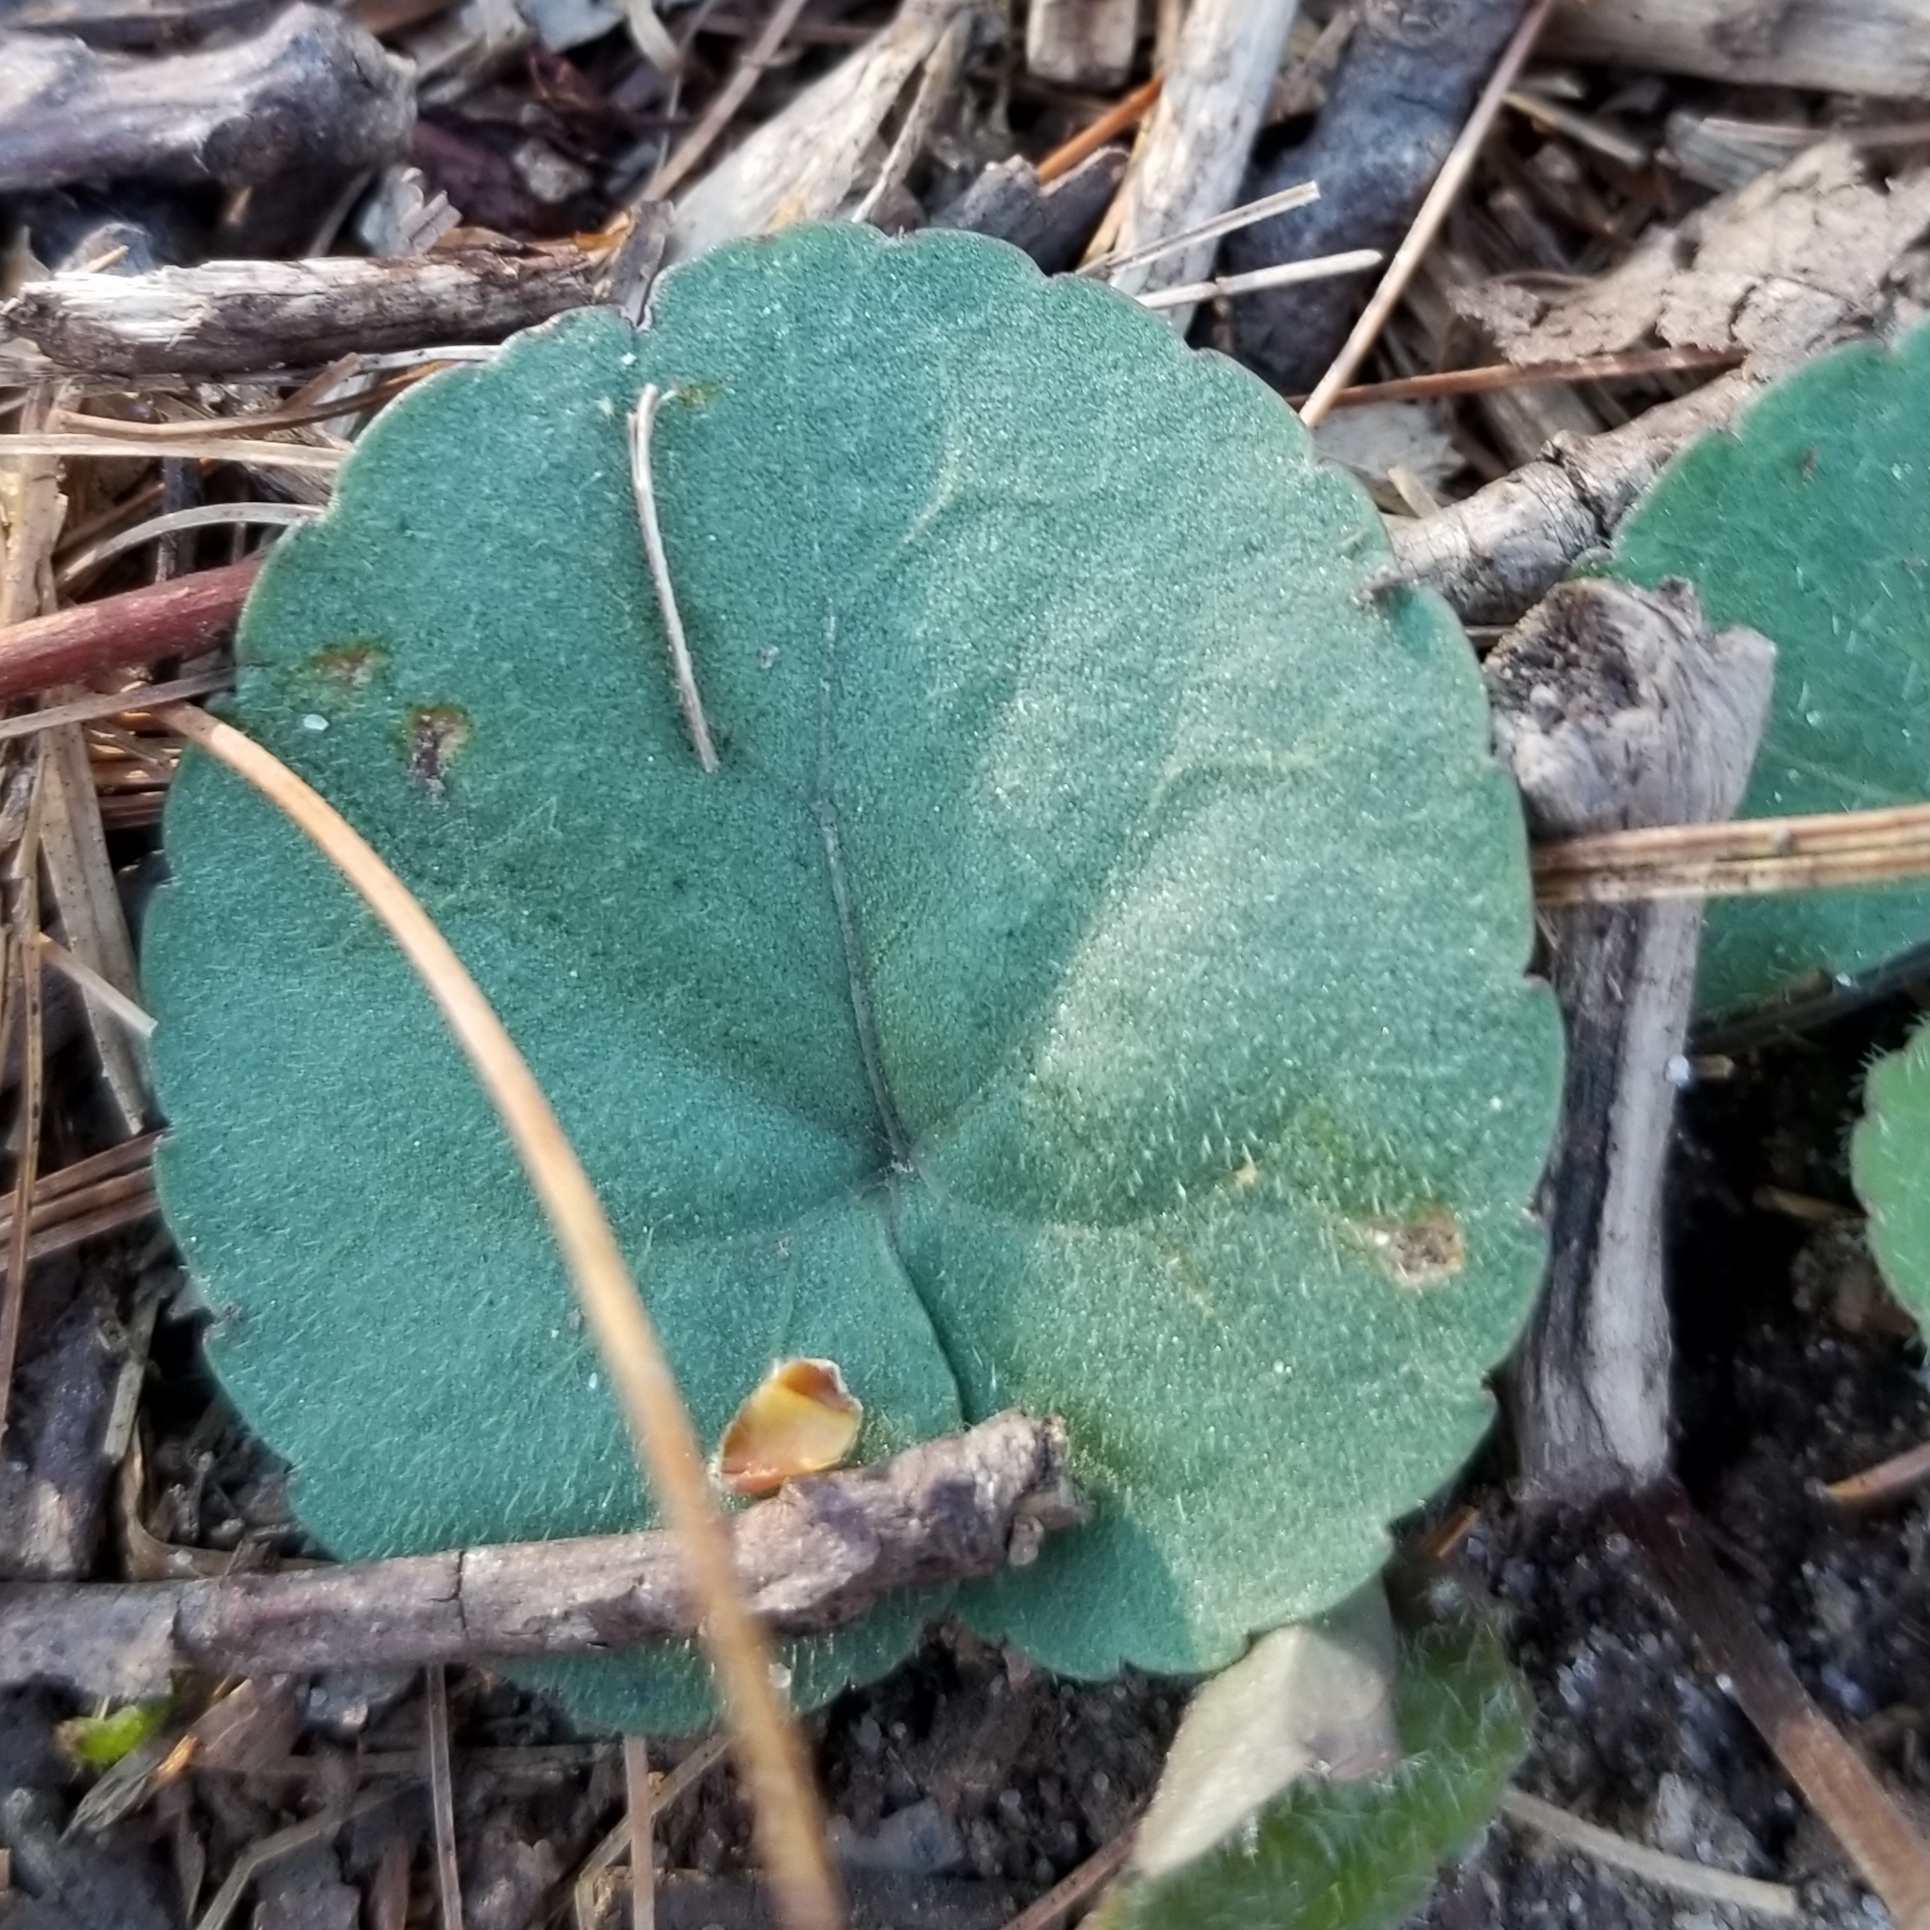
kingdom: Plantae
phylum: Tracheophyta
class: Magnoliopsida
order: Malpighiales
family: Violaceae
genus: Viola
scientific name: Viola hirsutula
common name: Southern wood violet
